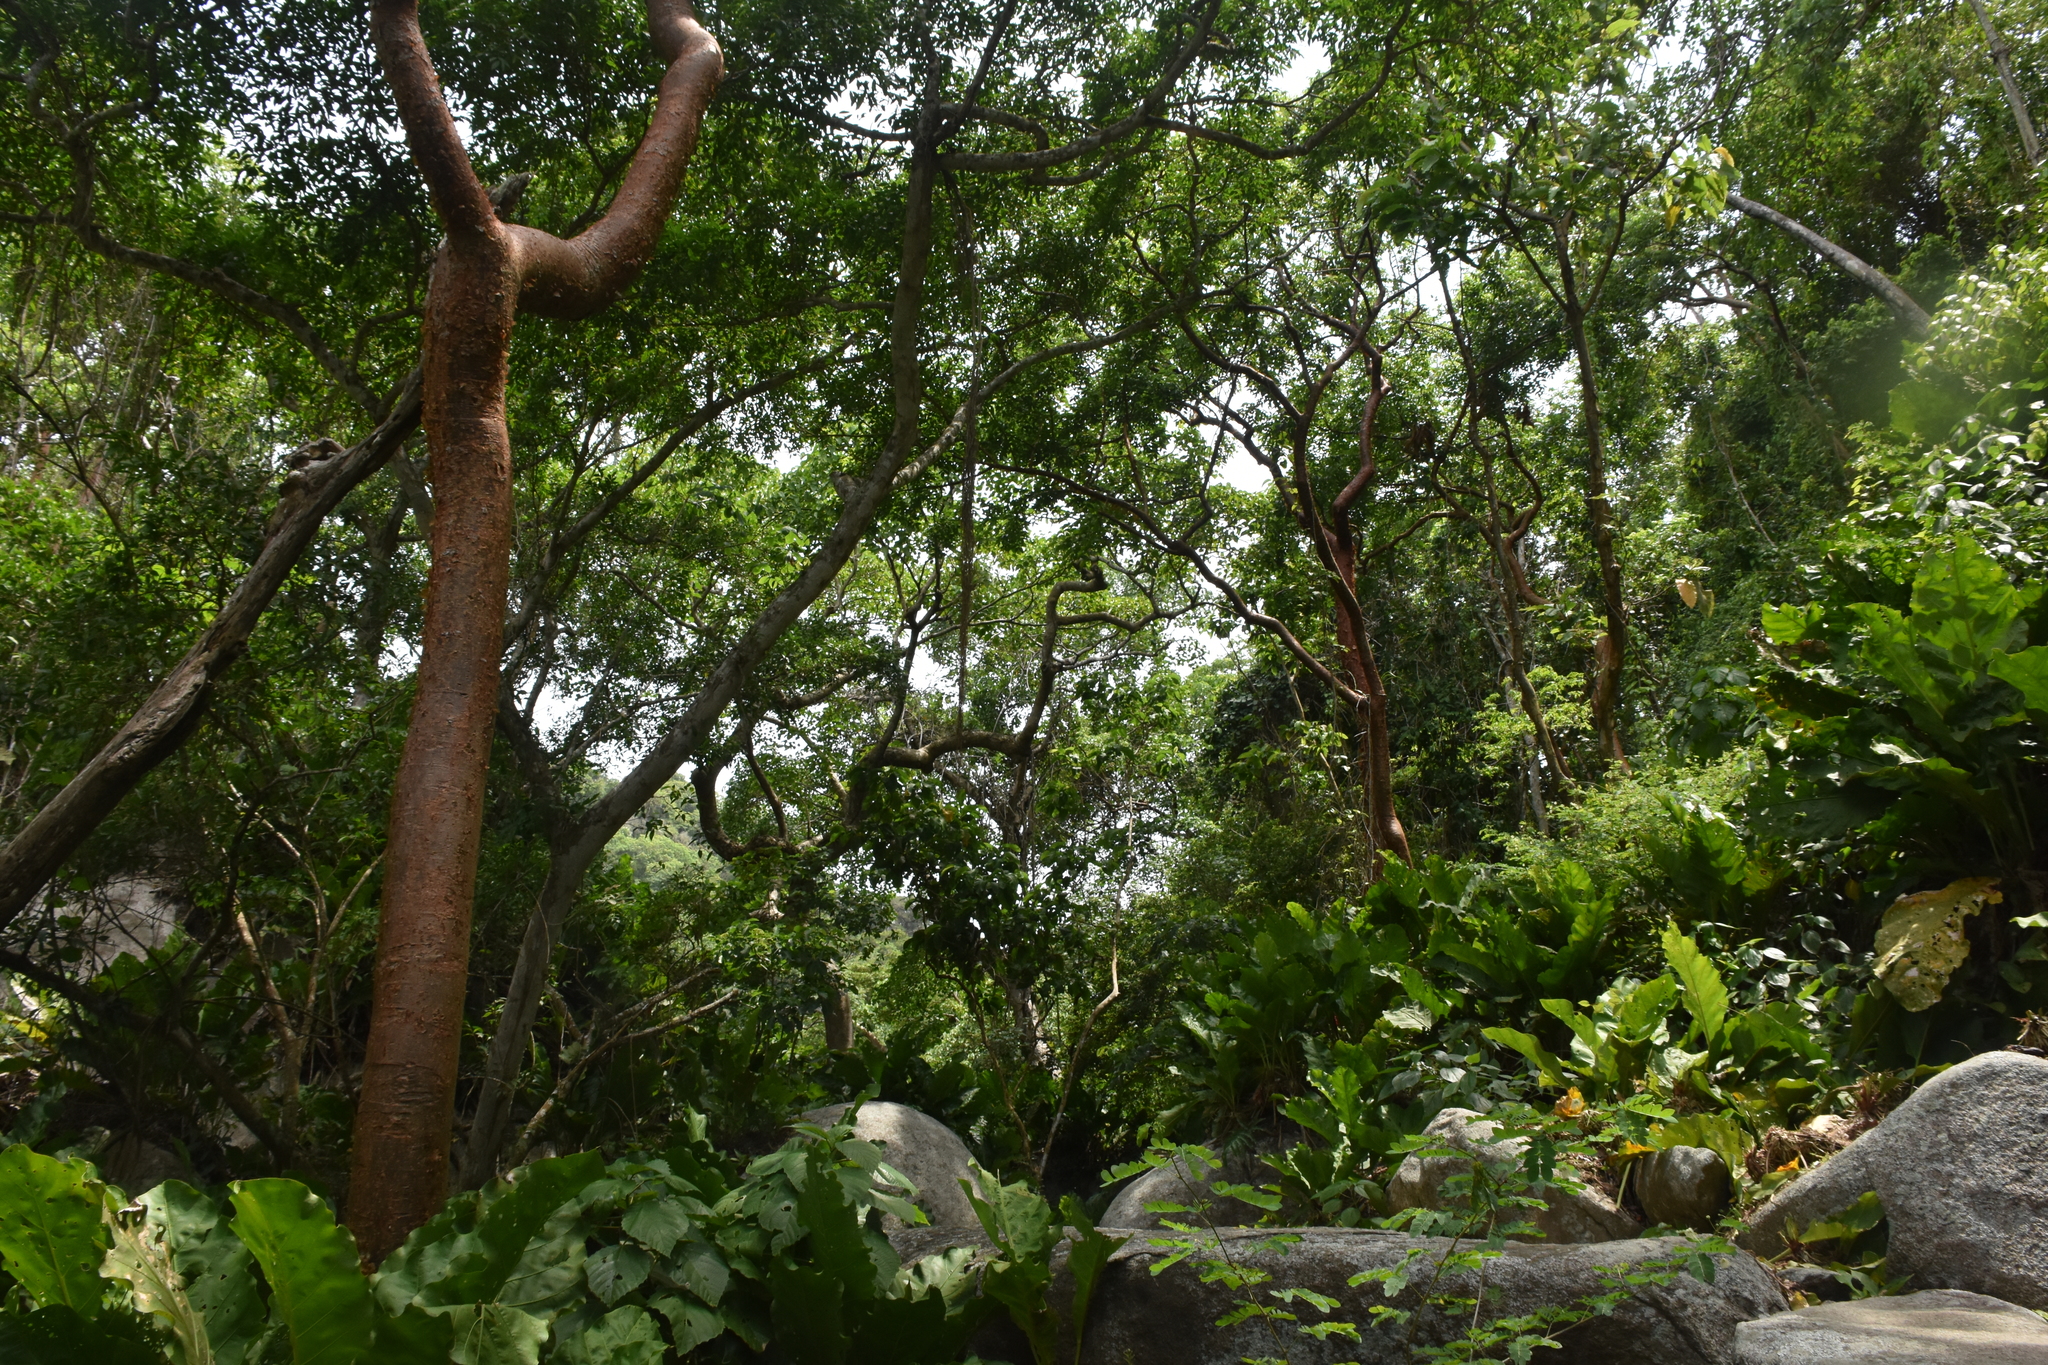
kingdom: Plantae
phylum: Tracheophyta
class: Magnoliopsida
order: Sapindales
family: Burseraceae
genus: Bursera
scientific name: Bursera simaruba
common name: Turpentine tree
